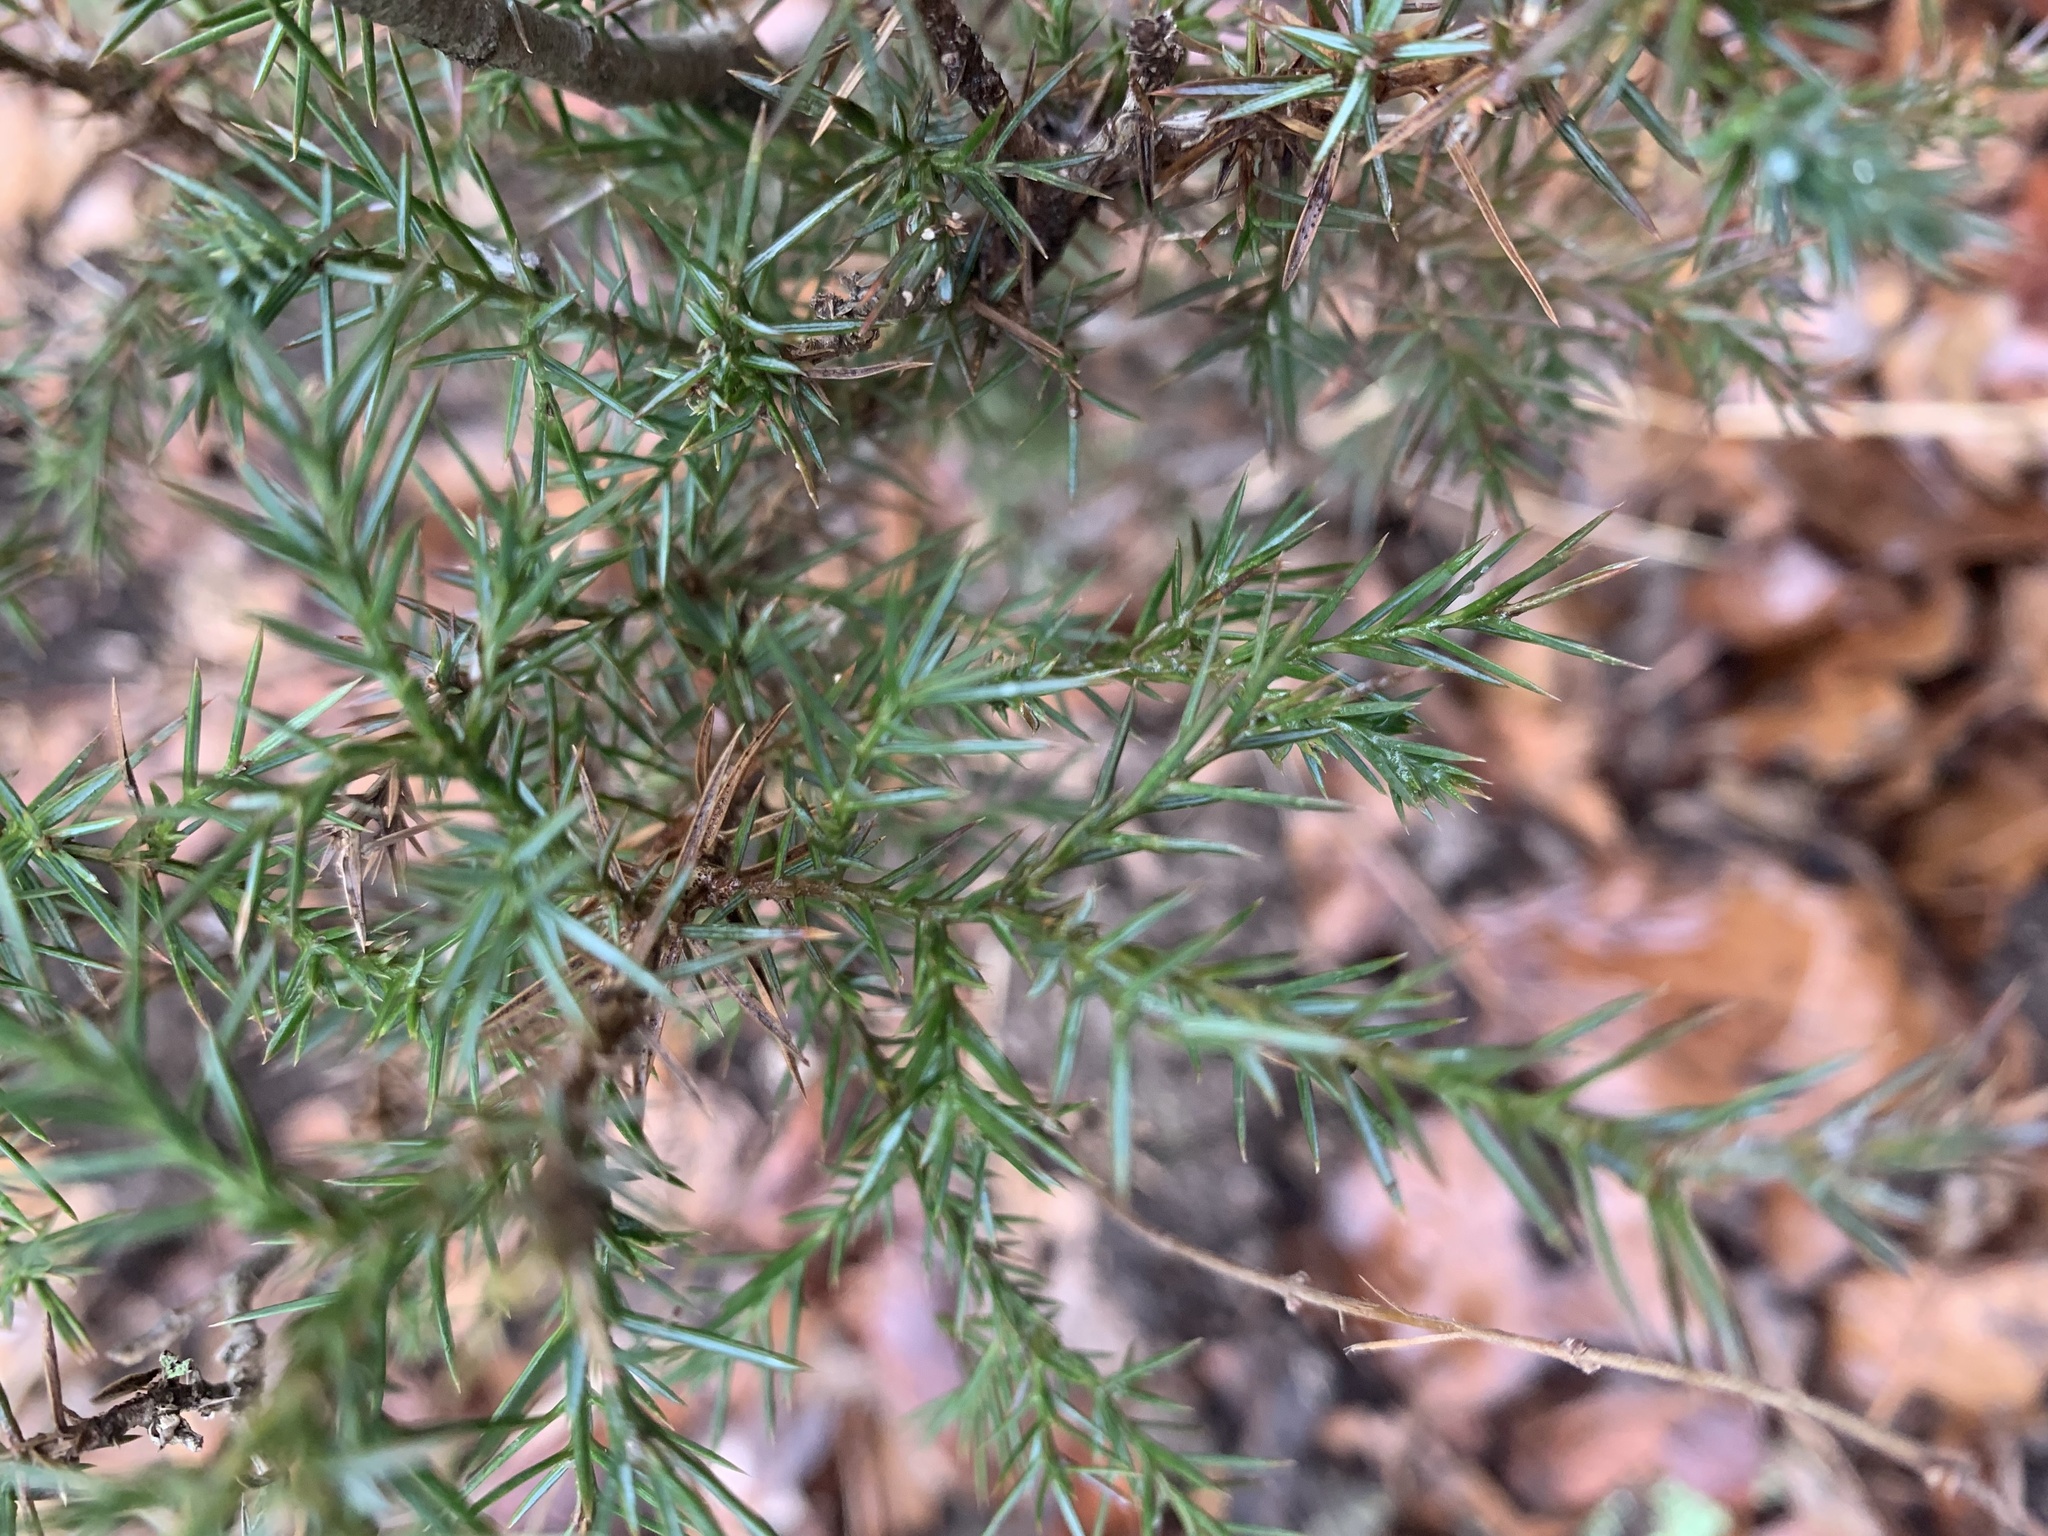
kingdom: Plantae
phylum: Tracheophyta
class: Pinopsida
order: Pinales
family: Cupressaceae
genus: Juniperus
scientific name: Juniperus virginiana
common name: Red juniper
